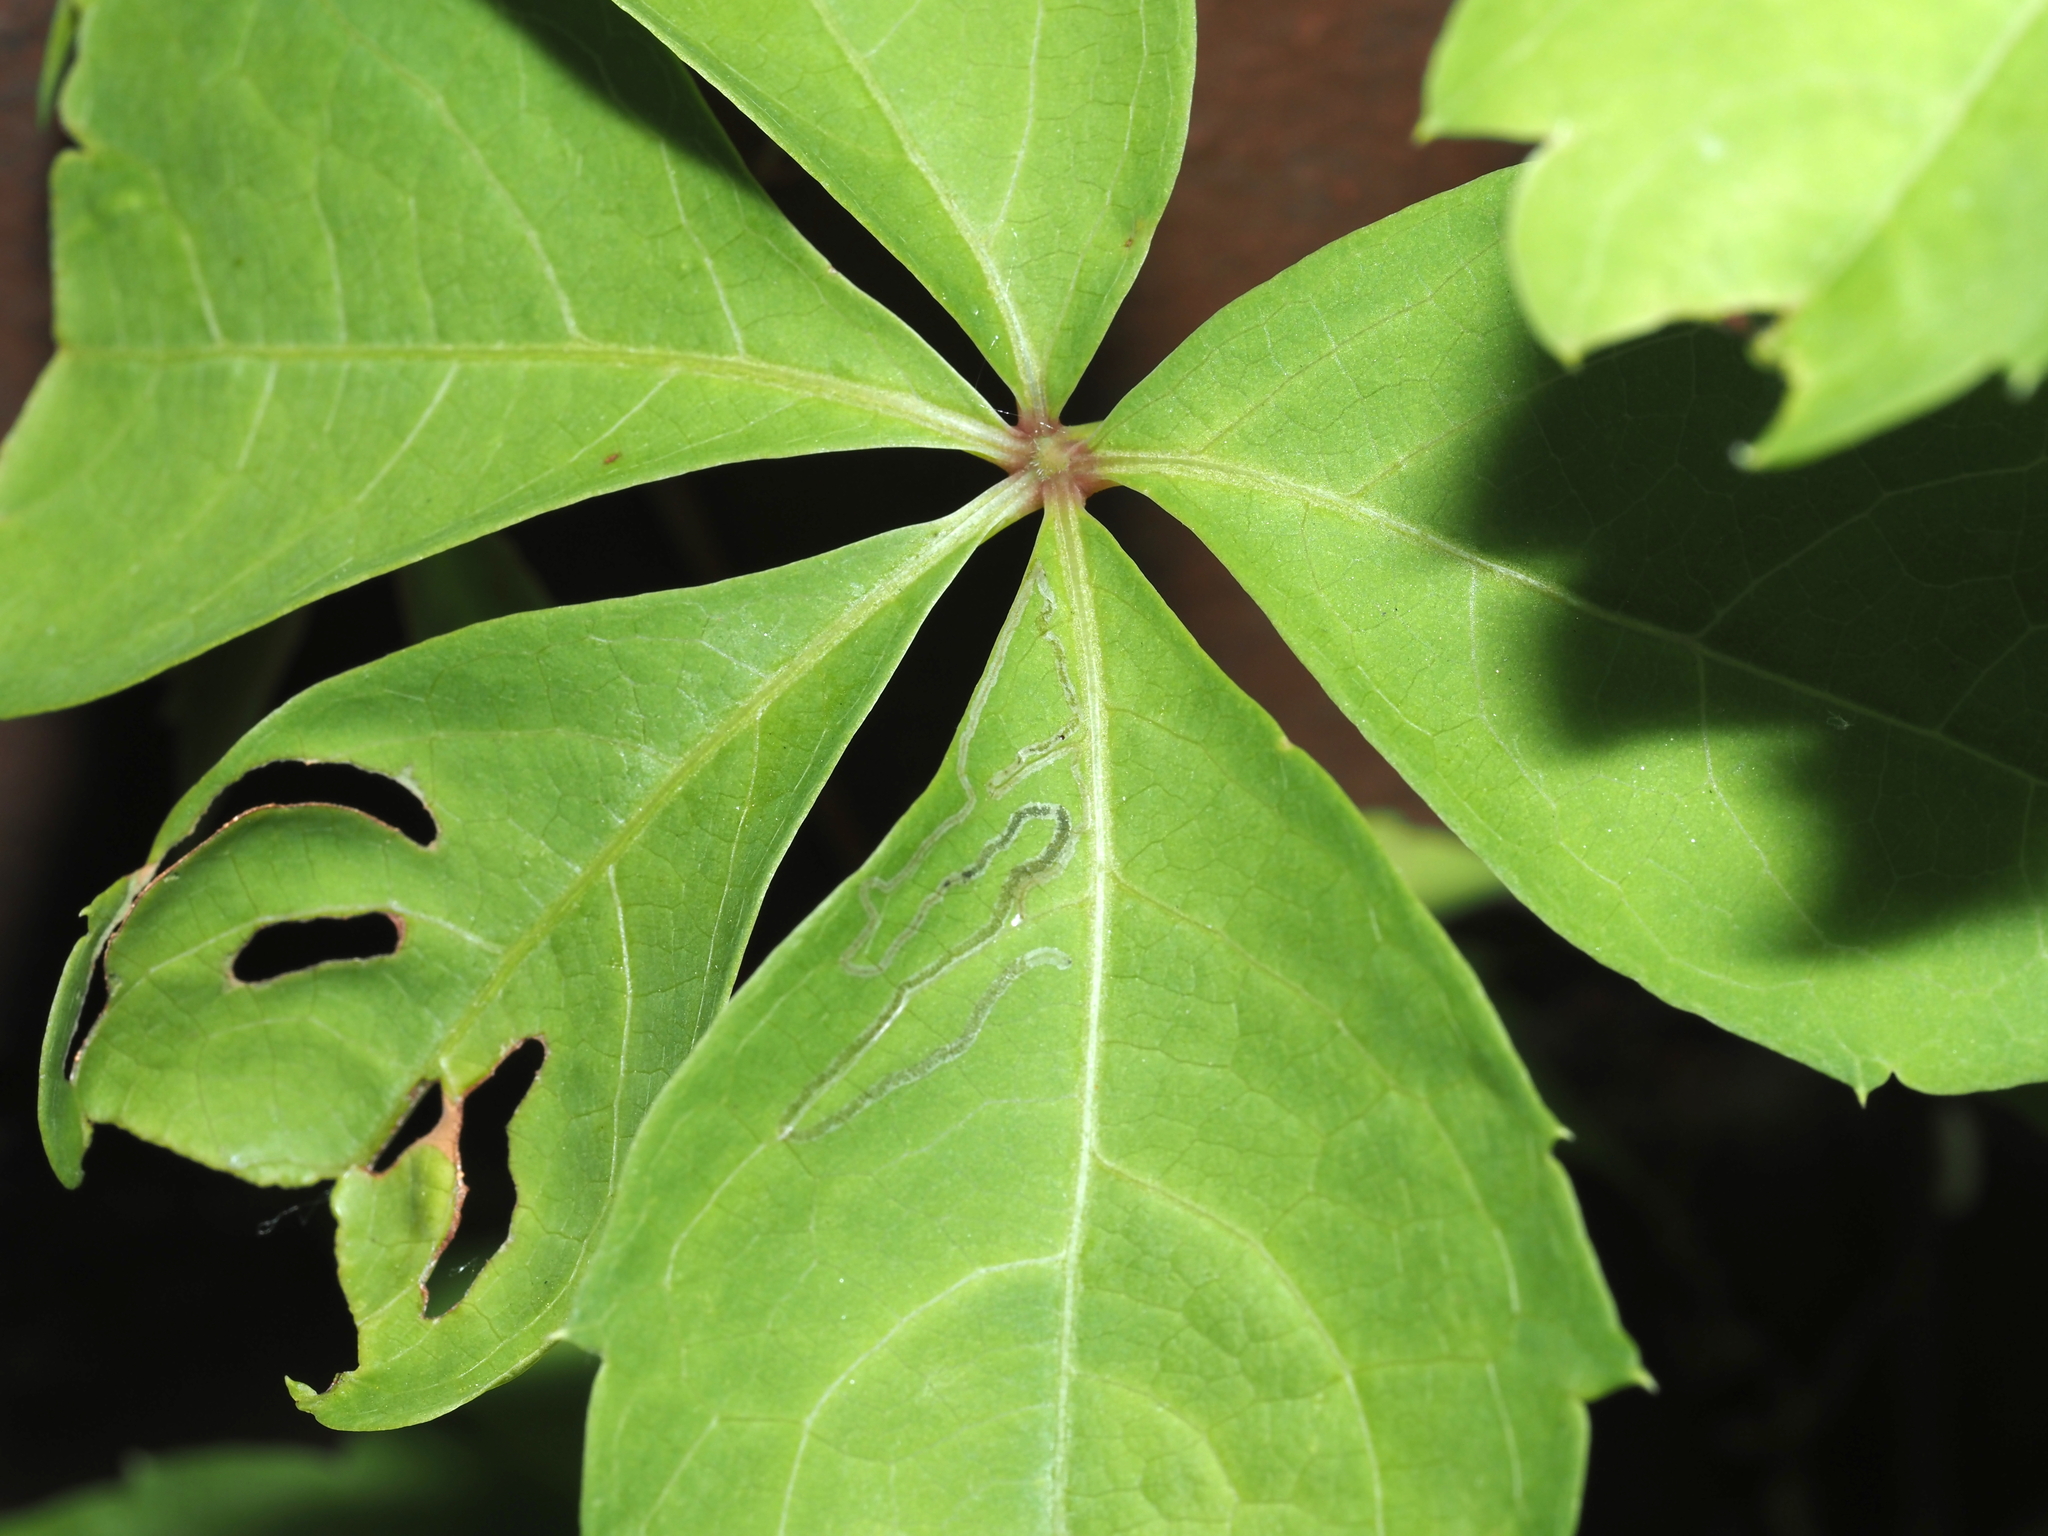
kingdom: Animalia
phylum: Arthropoda
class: Insecta
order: Lepidoptera
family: Gracillariidae
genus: Phyllocnistis
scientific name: Phyllocnistis vitifoliella
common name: Grape leaf-miner moth
